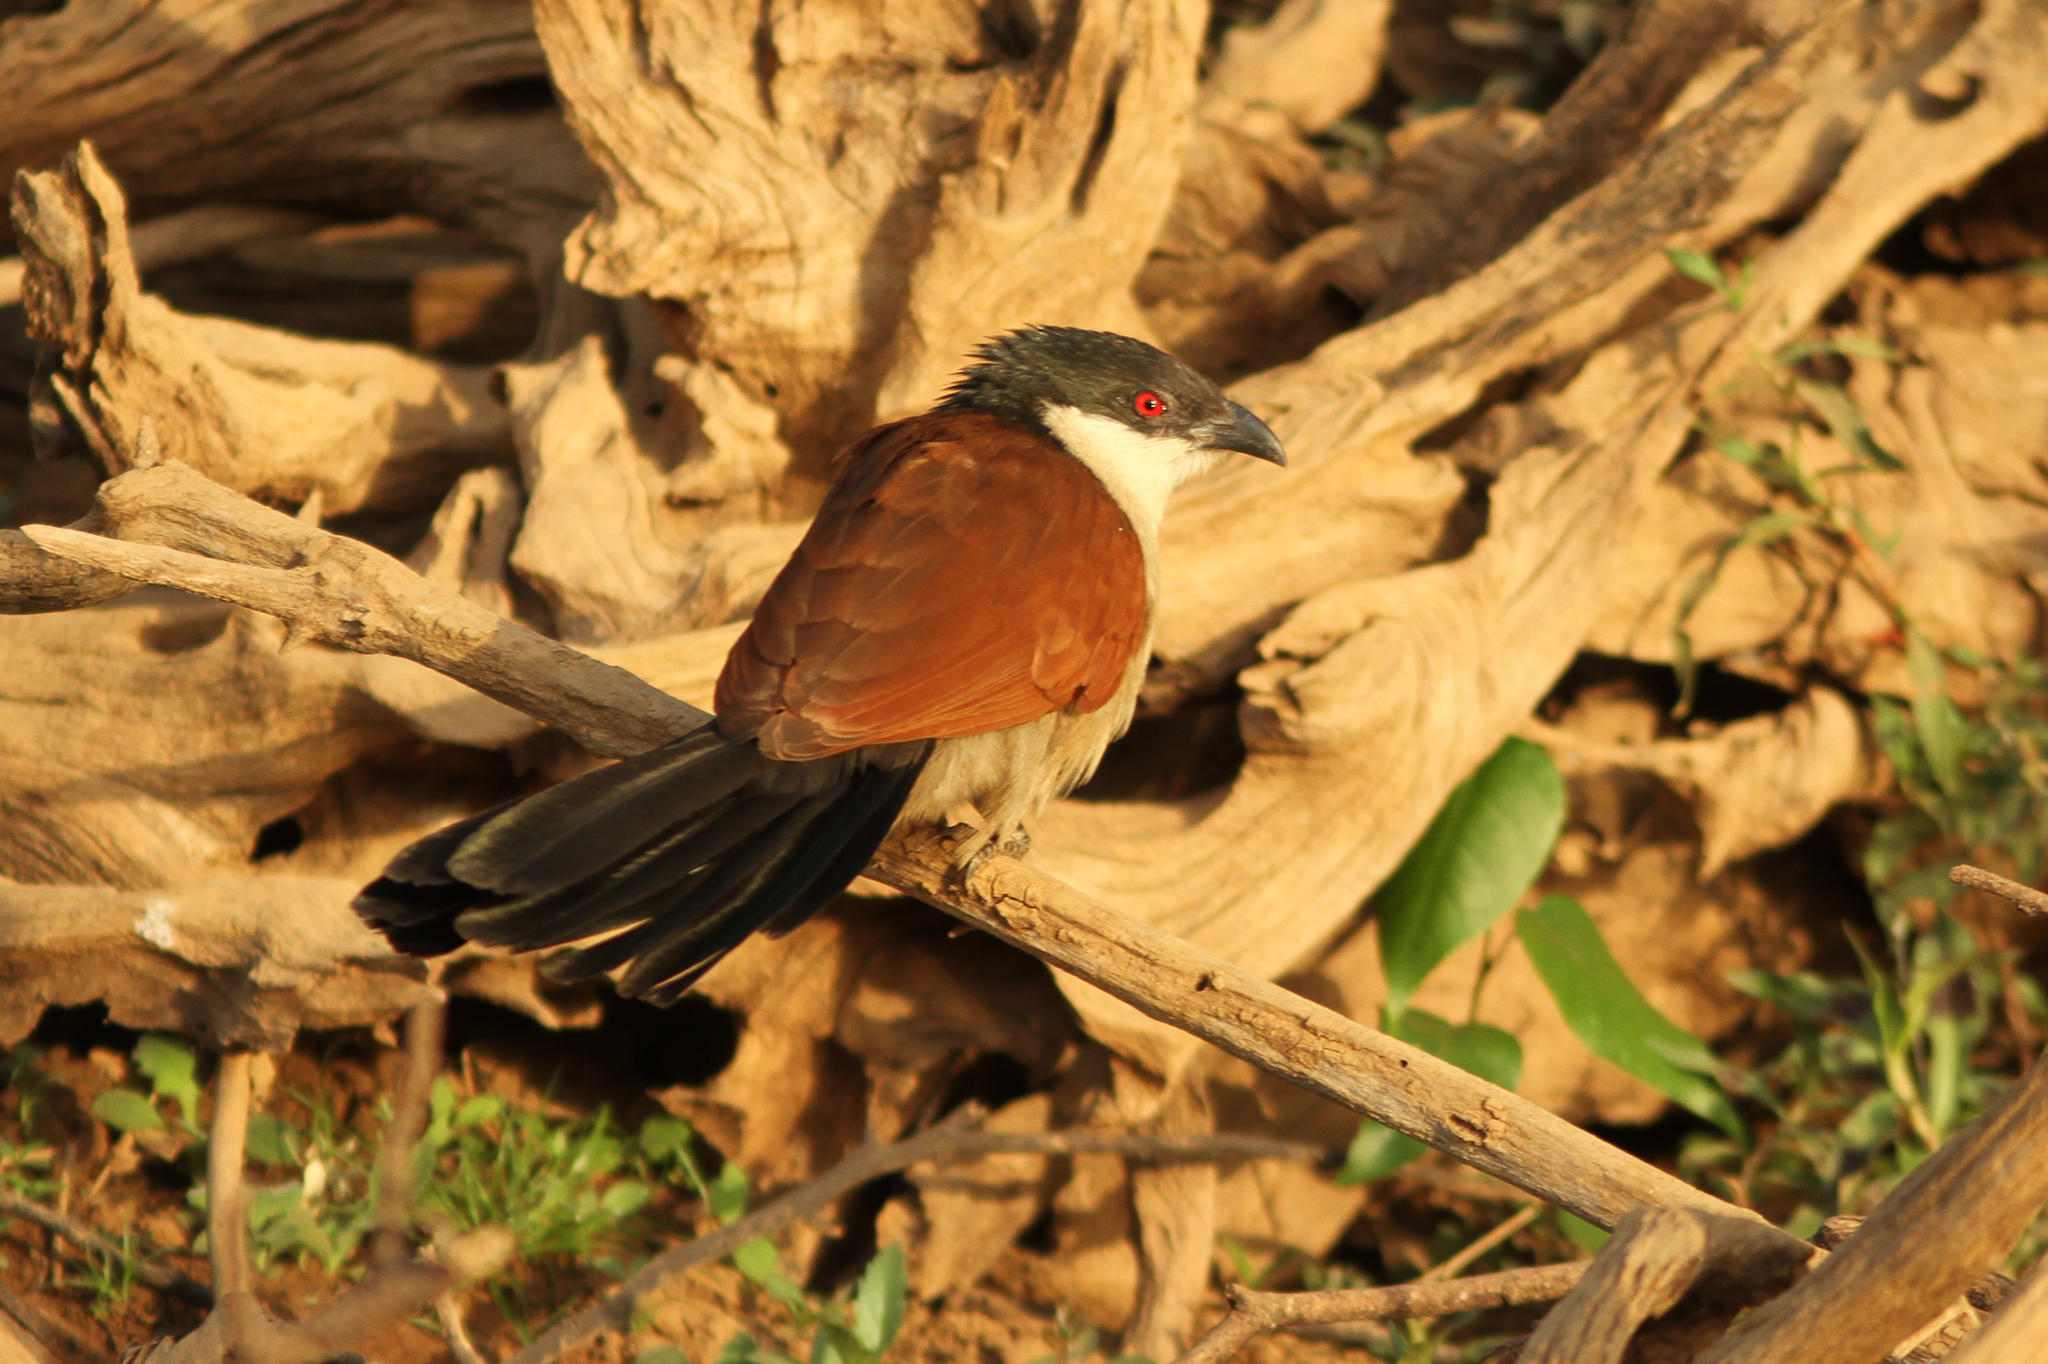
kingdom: Animalia
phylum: Chordata
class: Aves
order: Cuculiformes
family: Cuculidae
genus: Centropus
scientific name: Centropus senegalensis
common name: Senegal coucal
